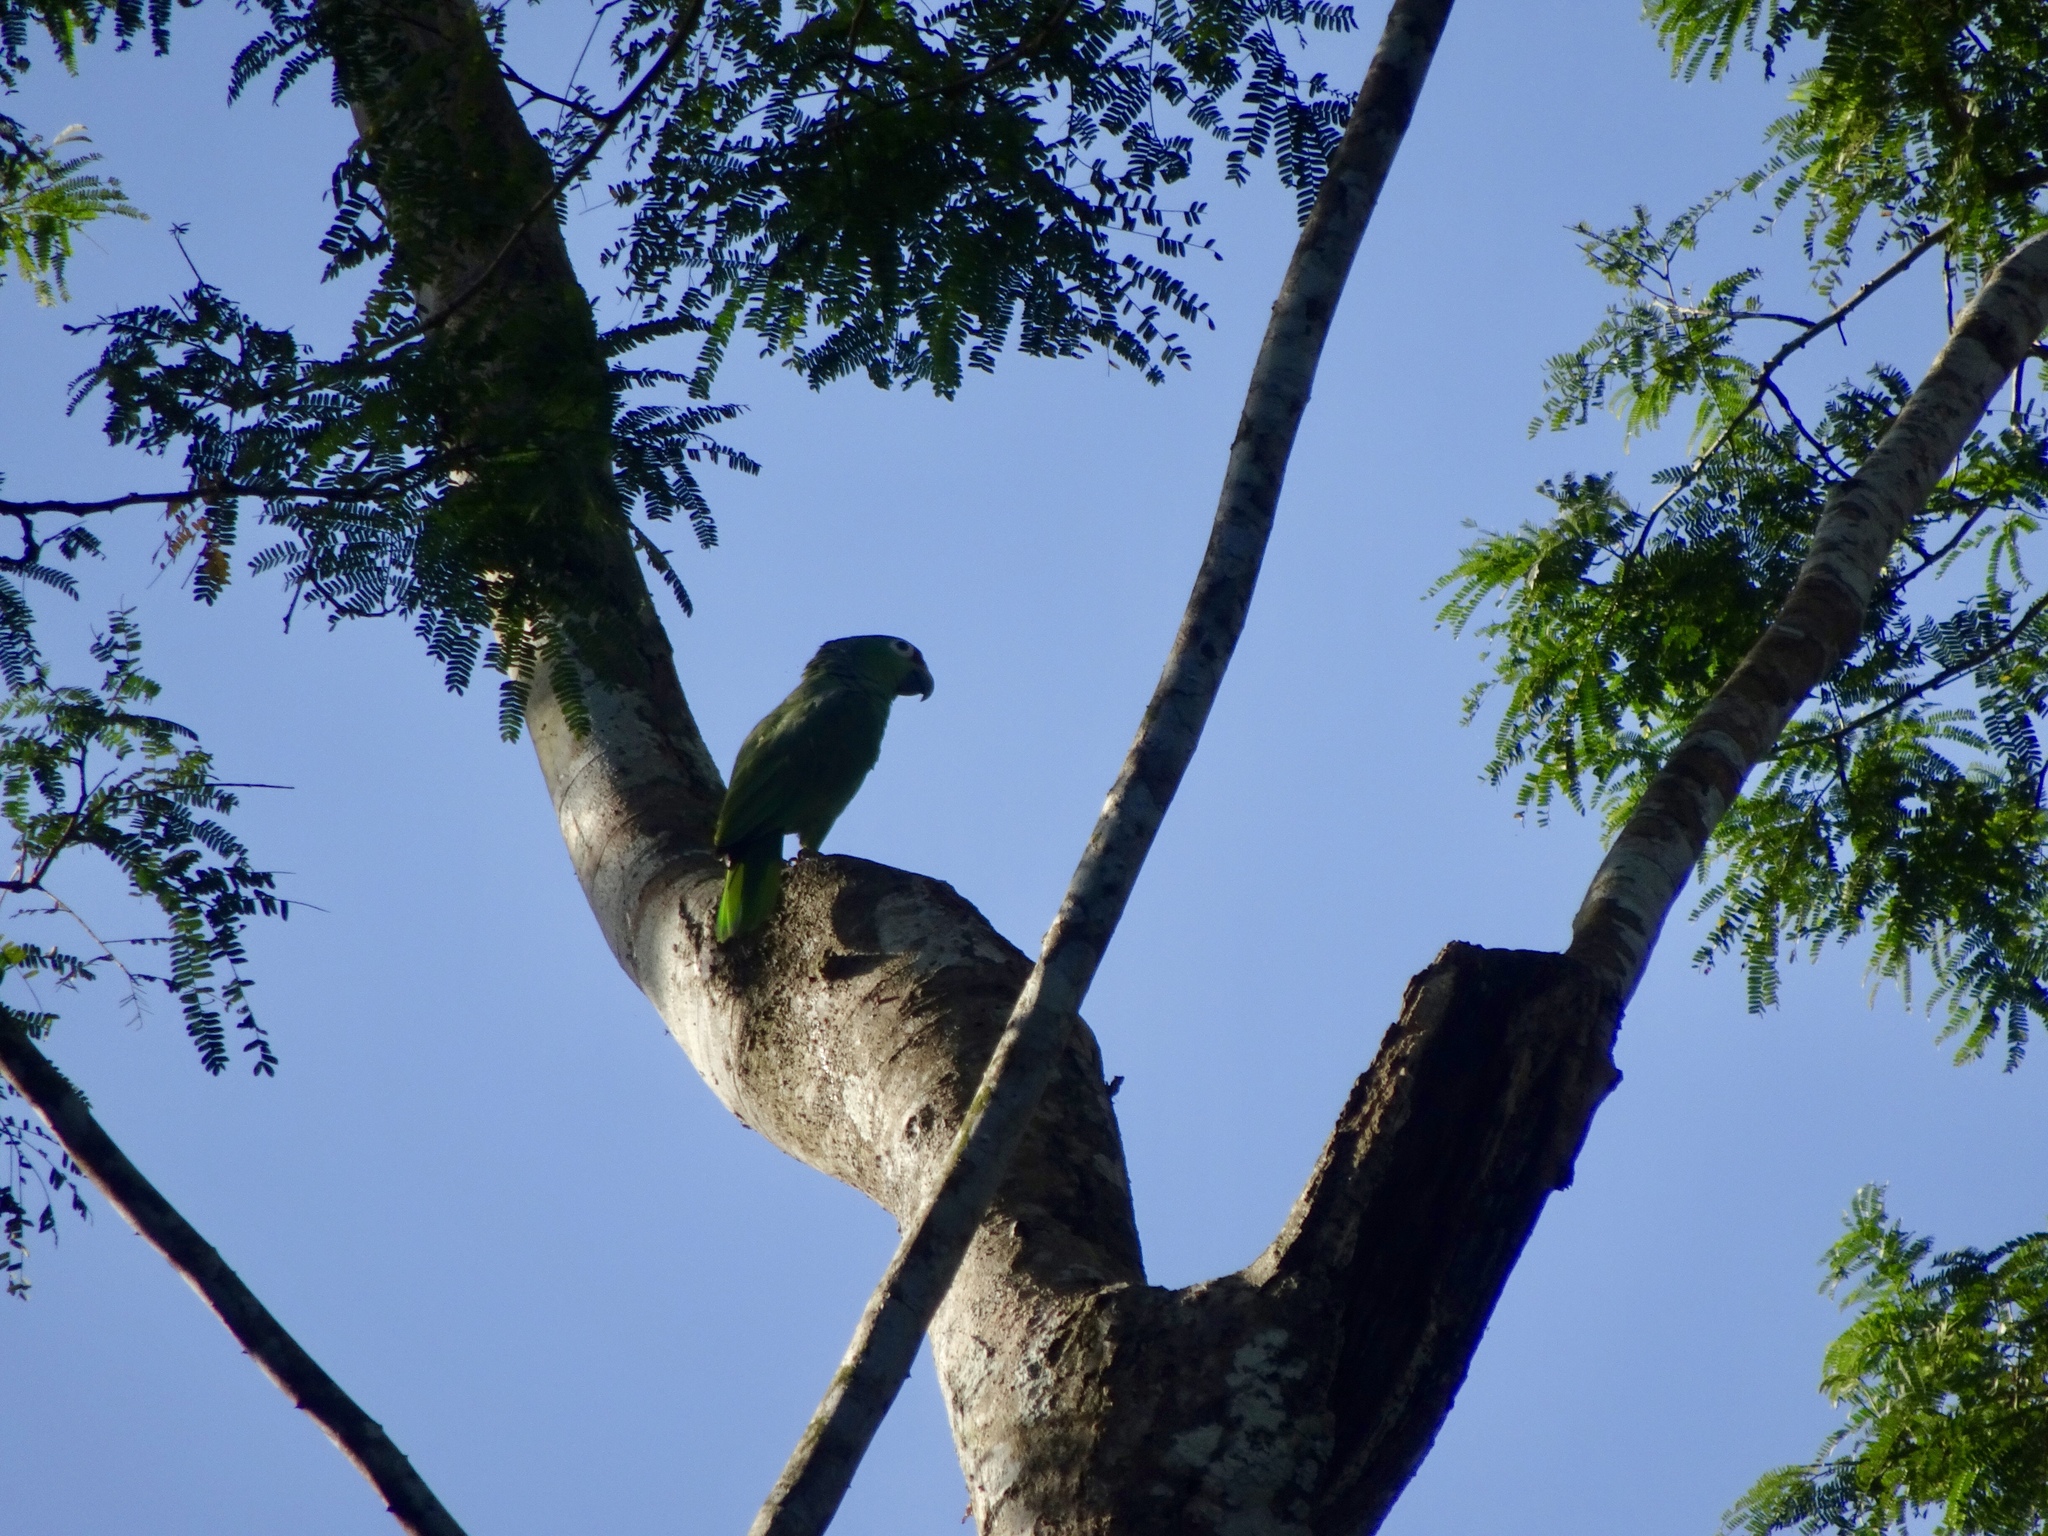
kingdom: Animalia
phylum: Chordata
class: Aves
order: Psittaciformes
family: Psittacidae
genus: Amazona
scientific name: Amazona autumnalis
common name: Red-lored amazon
